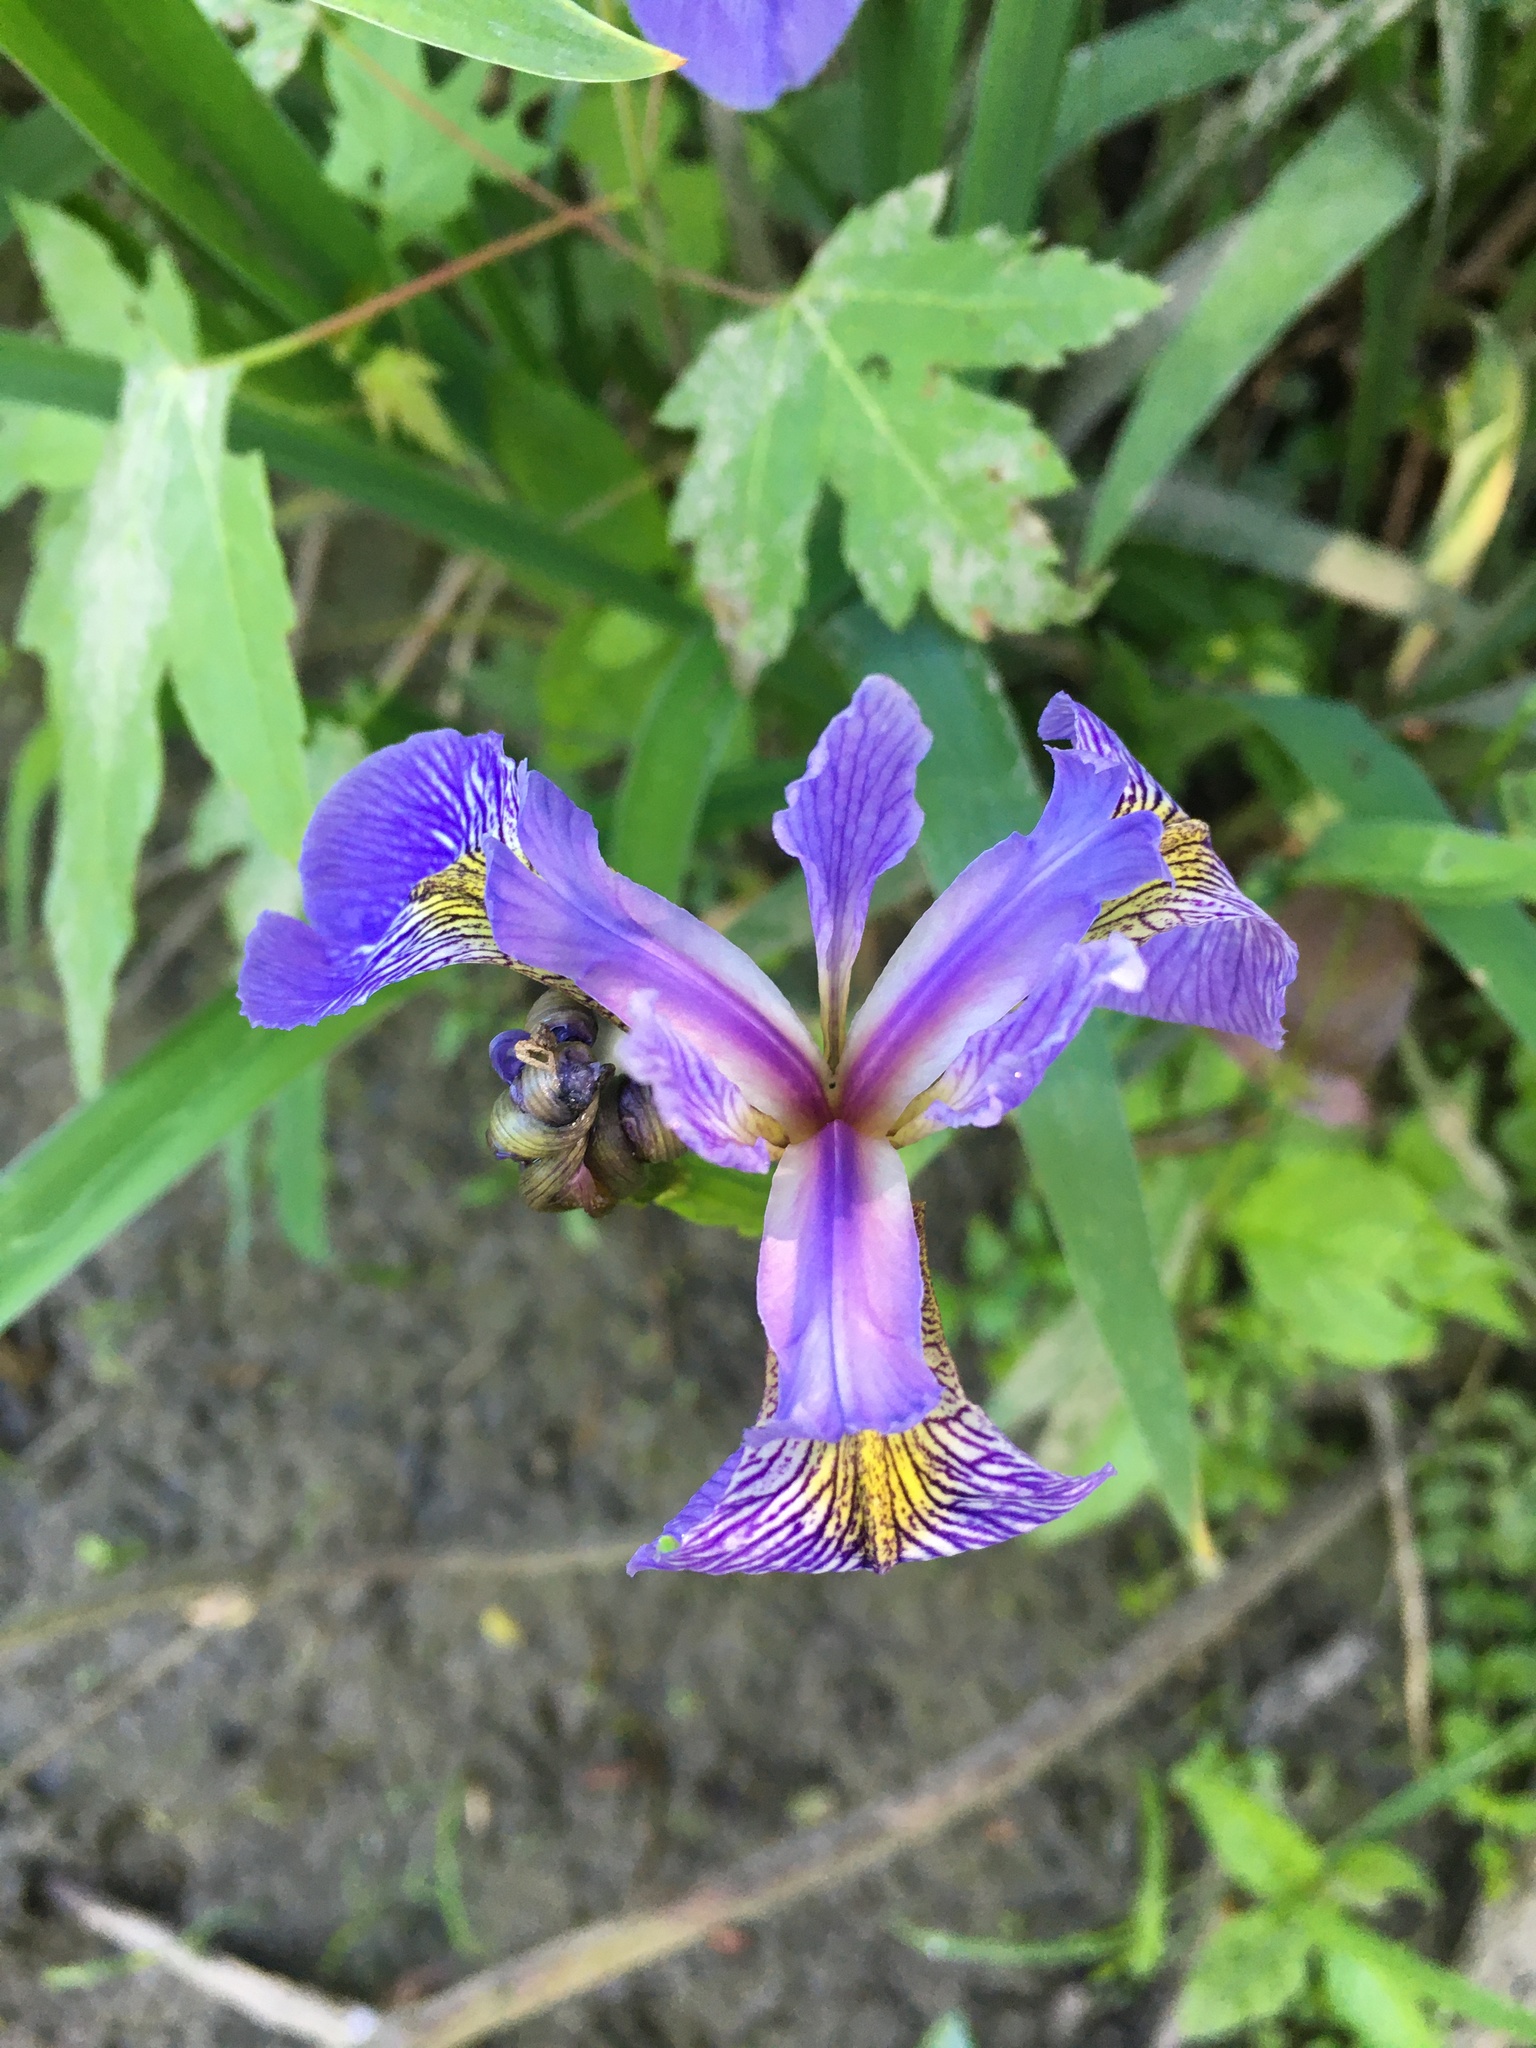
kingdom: Plantae
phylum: Tracheophyta
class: Liliopsida
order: Asparagales
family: Iridaceae
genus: Iris
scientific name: Iris versicolor
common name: Purple iris
